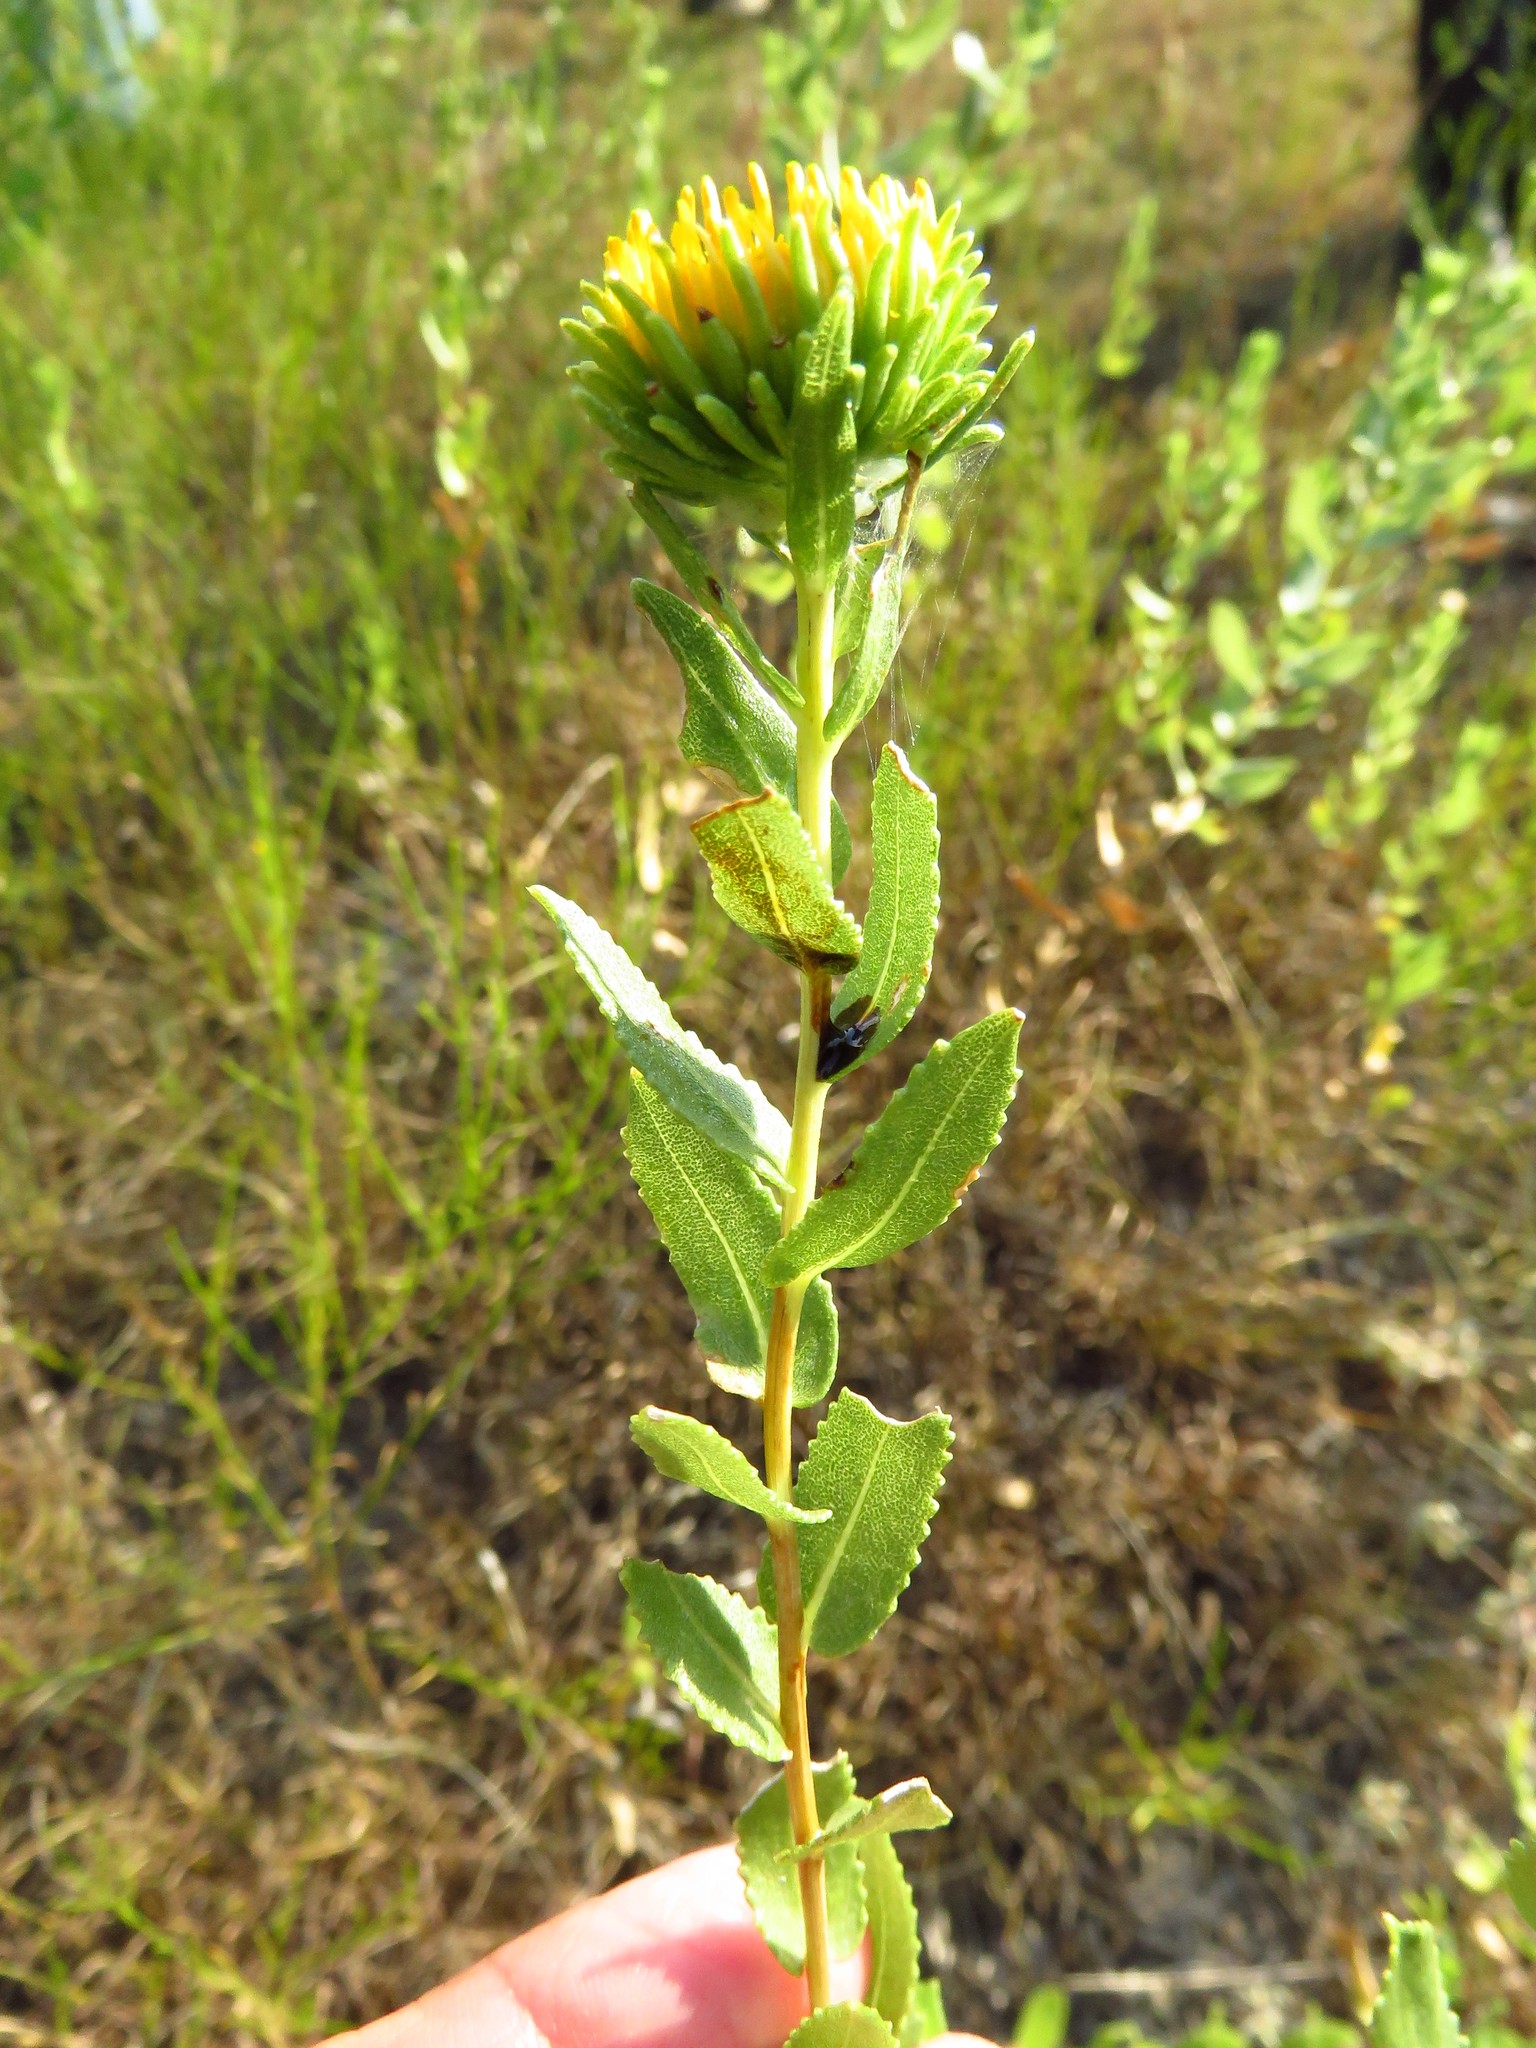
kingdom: Plantae
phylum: Tracheophyta
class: Magnoliopsida
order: Asterales
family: Asteraceae
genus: Grindelia
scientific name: Grindelia nuda
